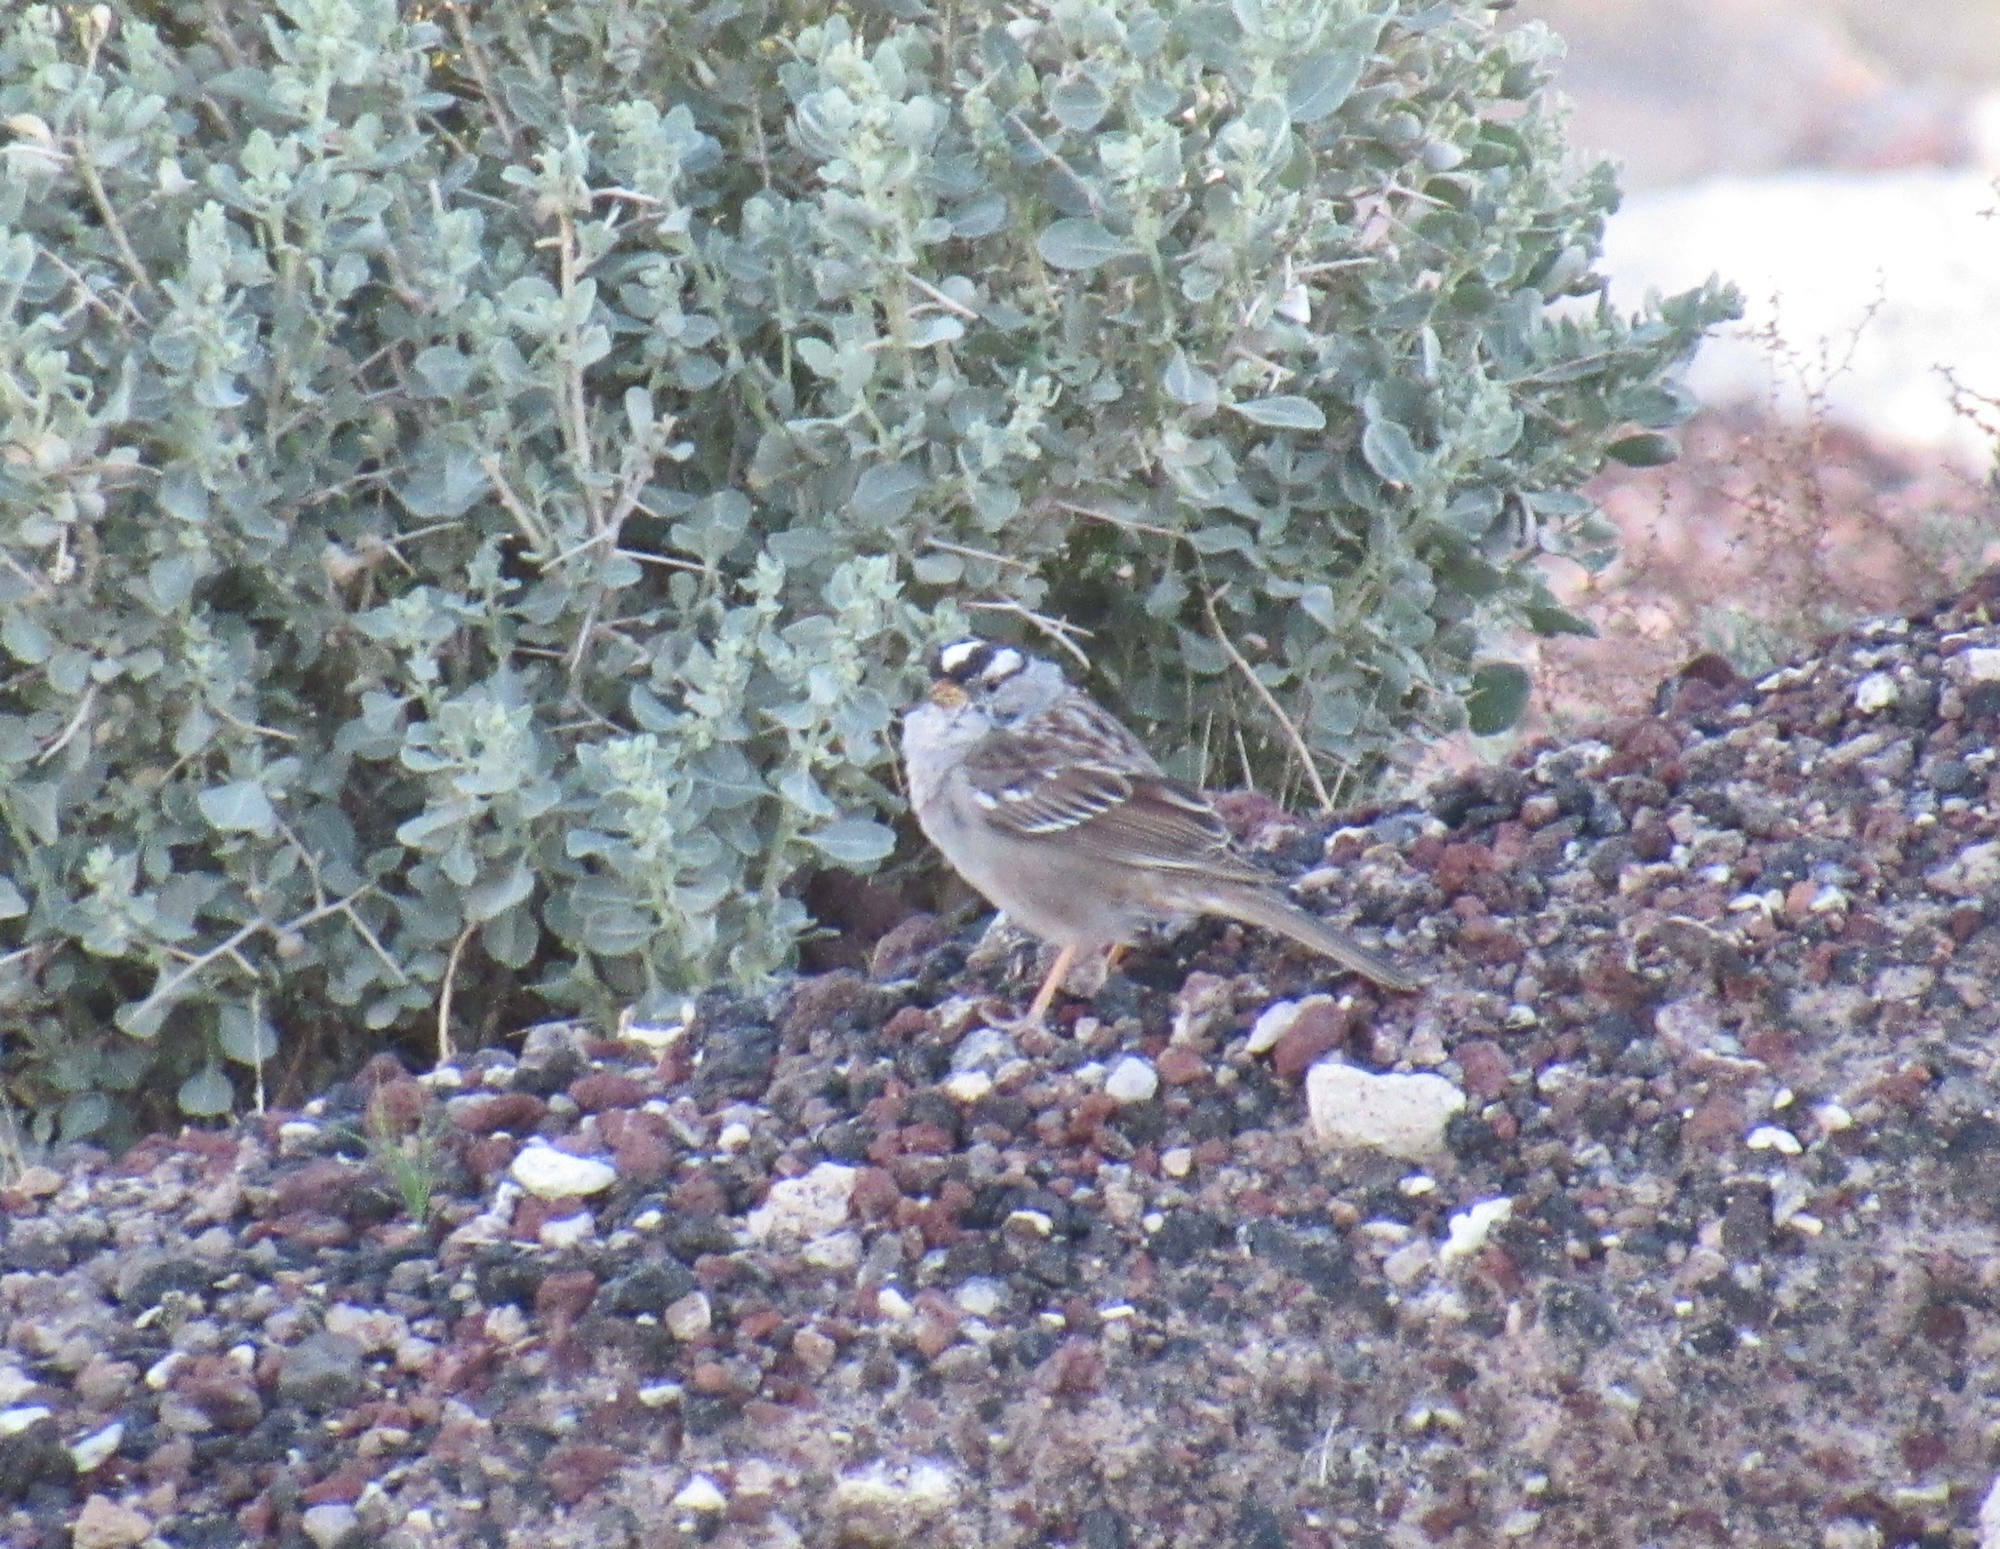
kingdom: Animalia
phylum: Chordata
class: Aves
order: Passeriformes
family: Passerellidae
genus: Zonotrichia
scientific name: Zonotrichia leucophrys
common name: White-crowned sparrow
